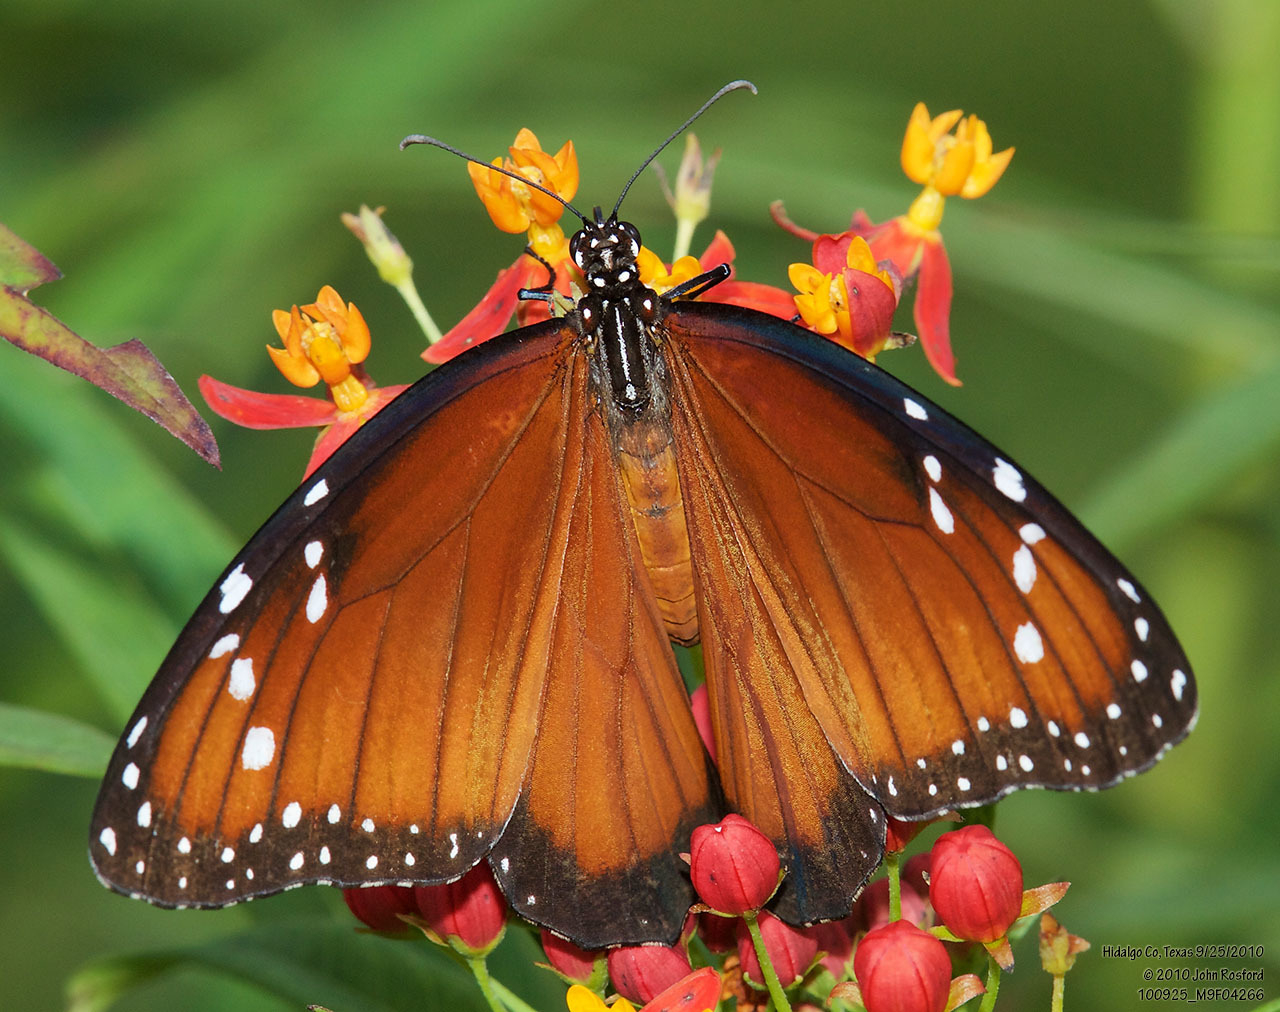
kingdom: Animalia
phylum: Arthropoda
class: Insecta
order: Lepidoptera
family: Nymphalidae
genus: Danaus
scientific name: Danaus eresimus
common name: Soldier
